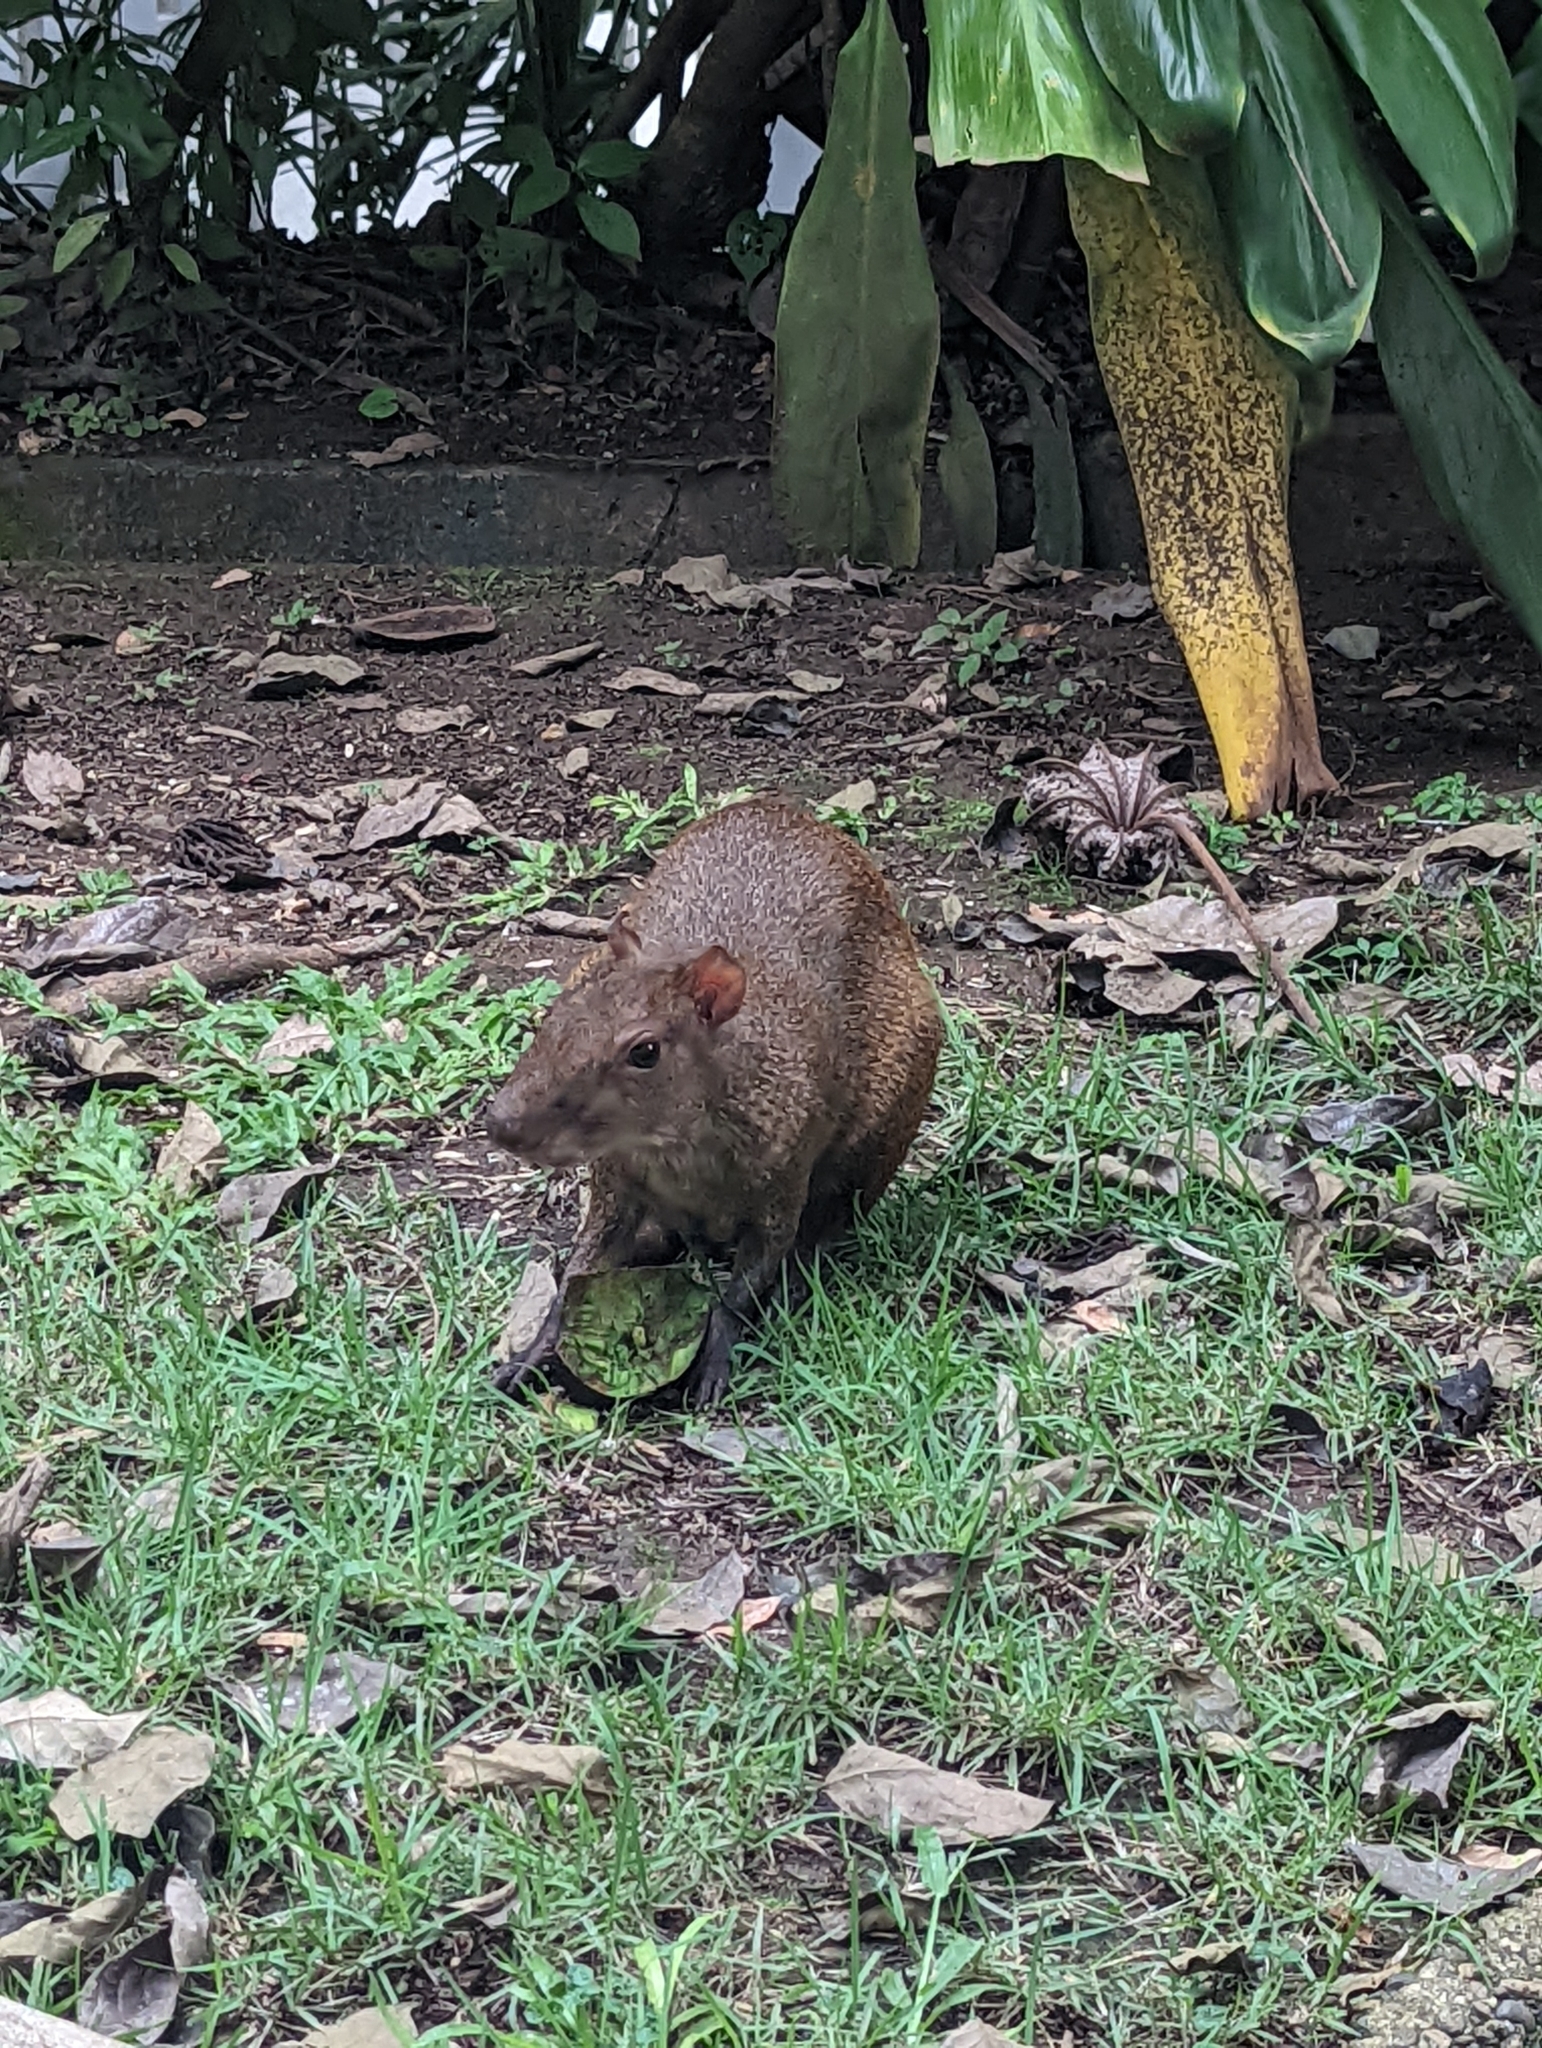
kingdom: Animalia
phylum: Chordata
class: Mammalia
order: Rodentia
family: Dasyproctidae
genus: Dasyprocta
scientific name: Dasyprocta punctata
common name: Central american agouti
